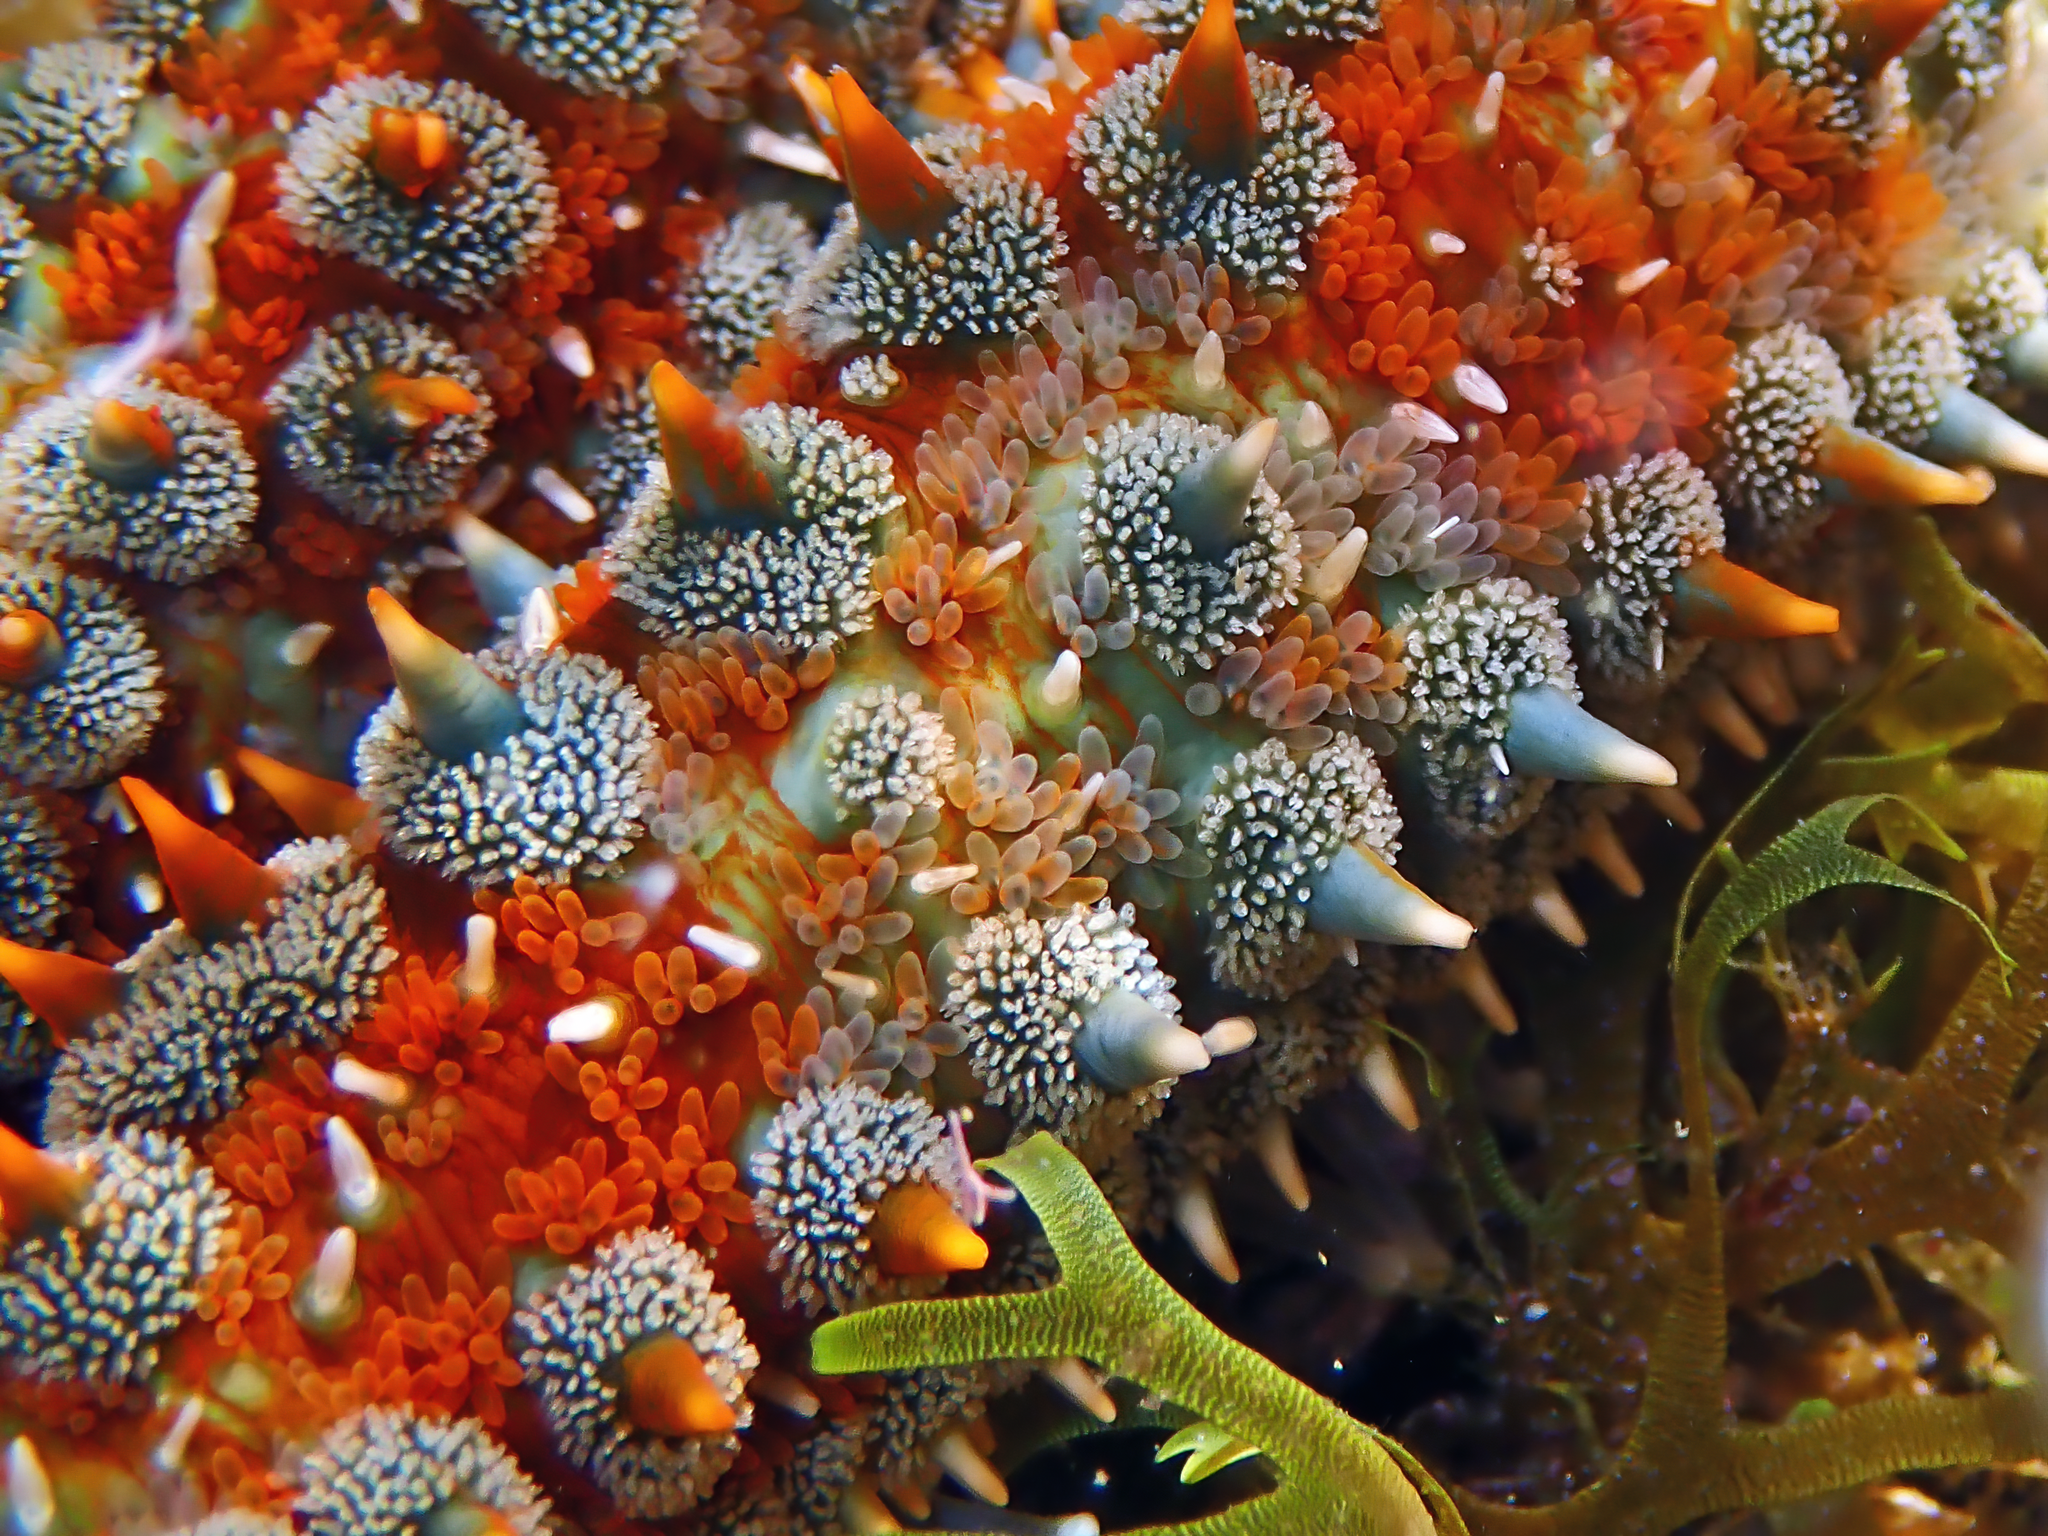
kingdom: Animalia
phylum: Echinodermata
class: Asteroidea
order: Forcipulatida
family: Asteriidae
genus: Marthasterias
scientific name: Marthasterias glacialis
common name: Spiny starfish
